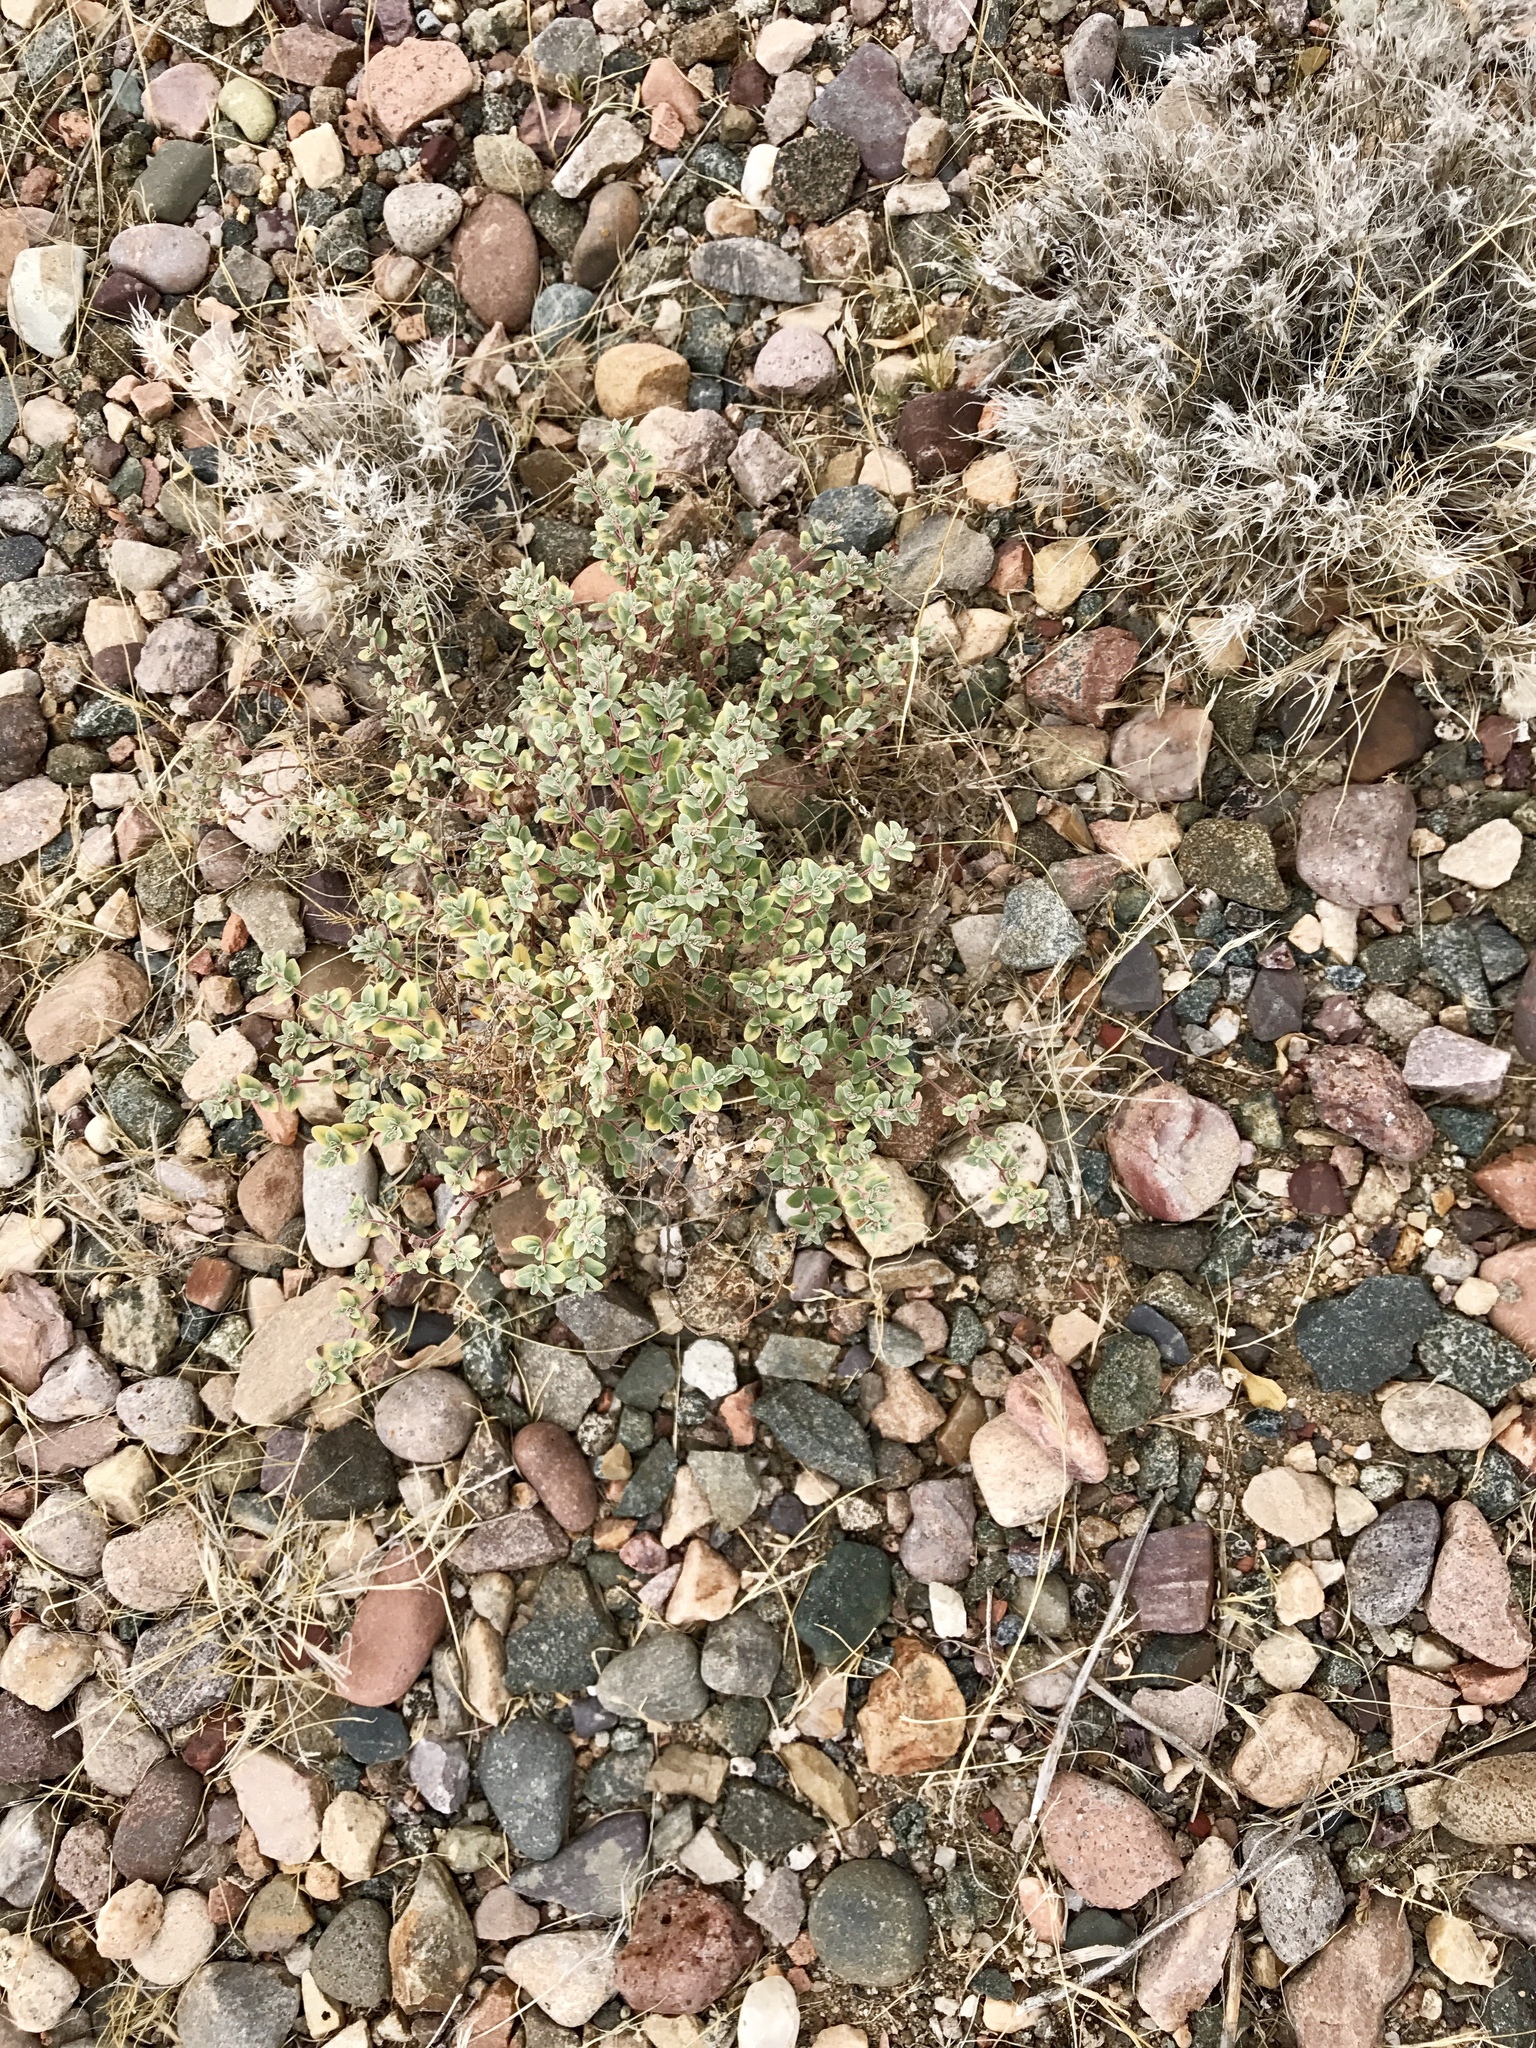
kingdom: Plantae
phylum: Tracheophyta
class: Magnoliopsida
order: Malpighiales
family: Euphorbiaceae
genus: Euphorbia
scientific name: Euphorbia melanadenia
